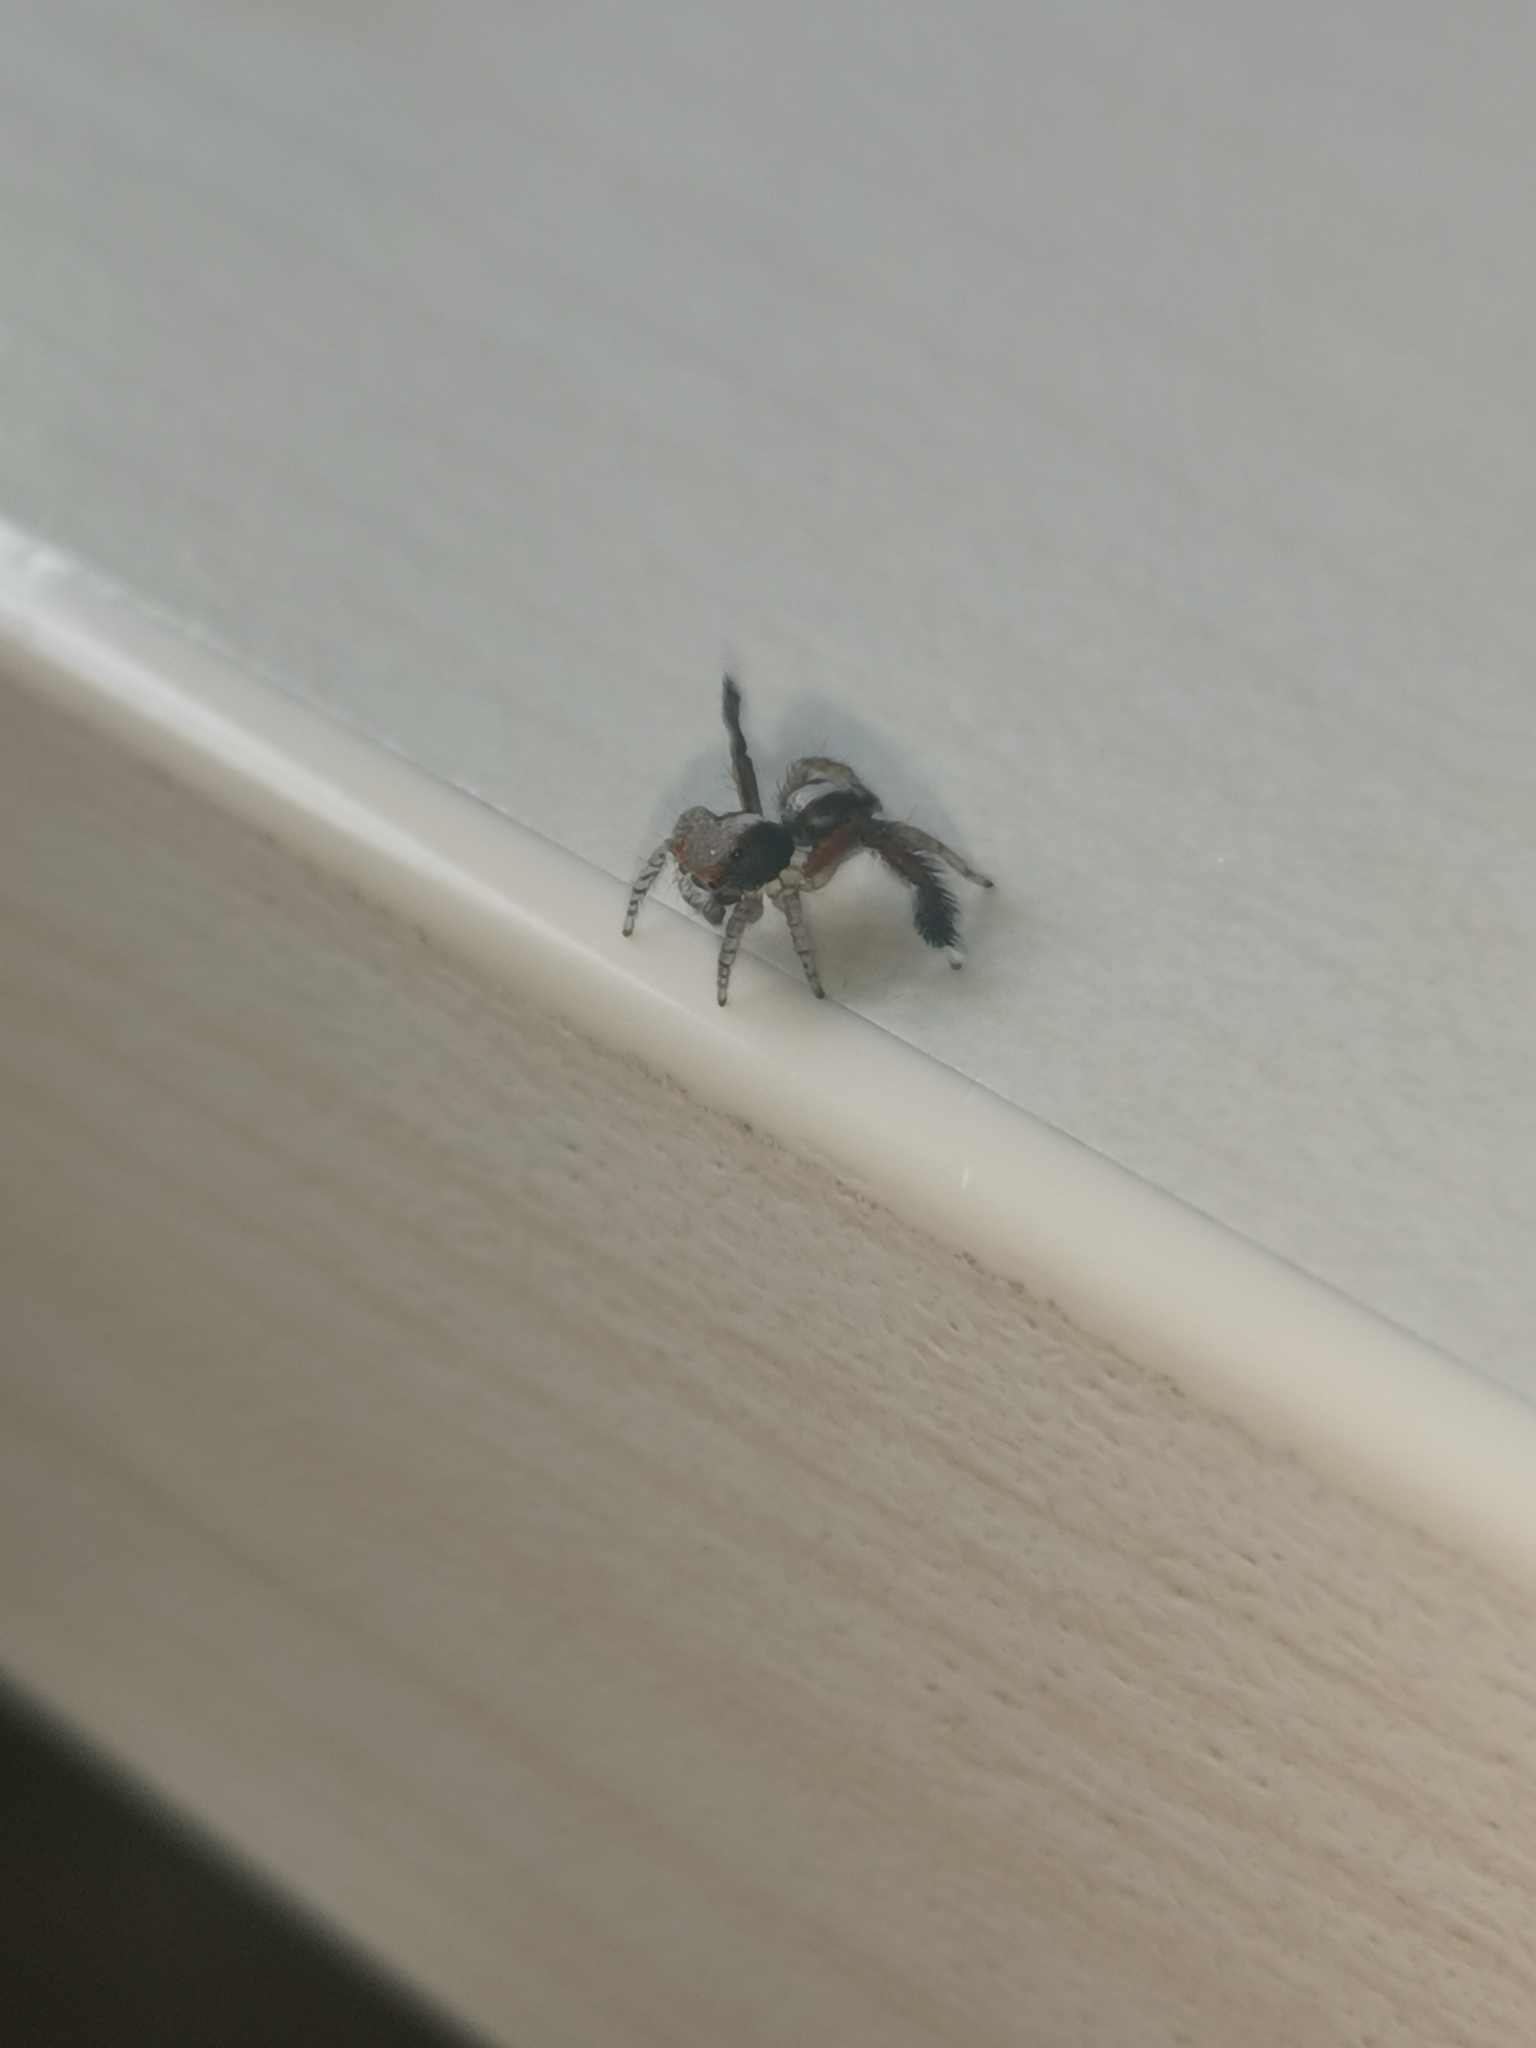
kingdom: Animalia
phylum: Arthropoda
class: Arachnida
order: Araneae
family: Salticidae
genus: Saitis
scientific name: Saitis barbipes
